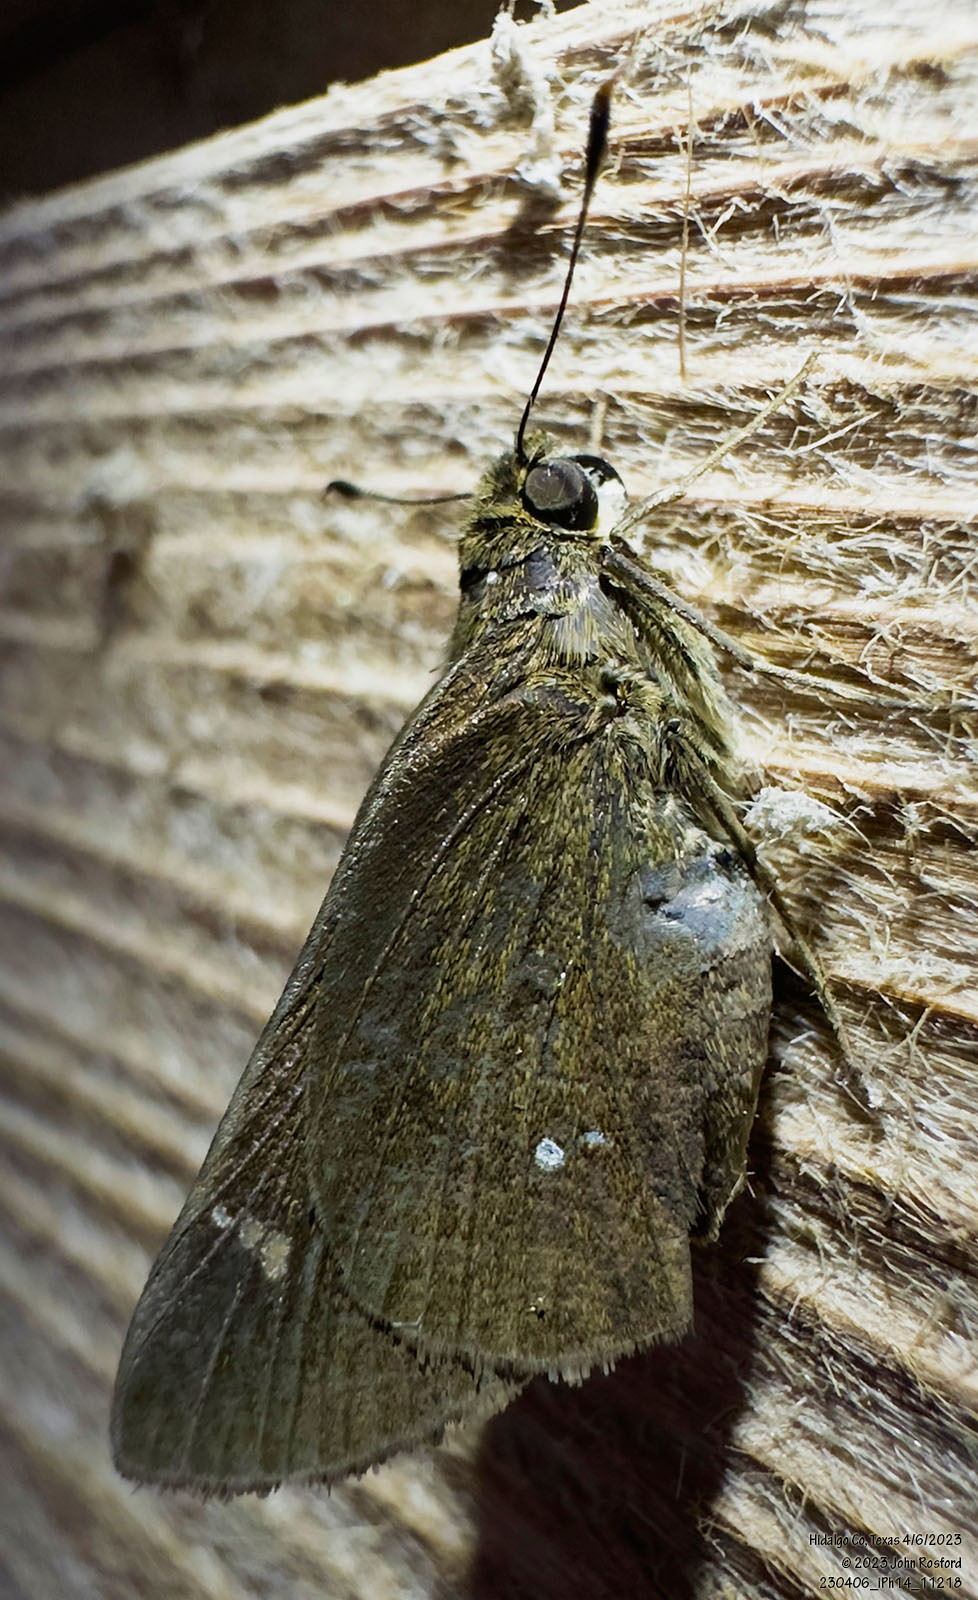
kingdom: Animalia
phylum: Arthropoda
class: Insecta
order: Lepidoptera
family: Hesperiidae
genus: Decinea
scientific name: Decinea percosius
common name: Double-dotted skipper
